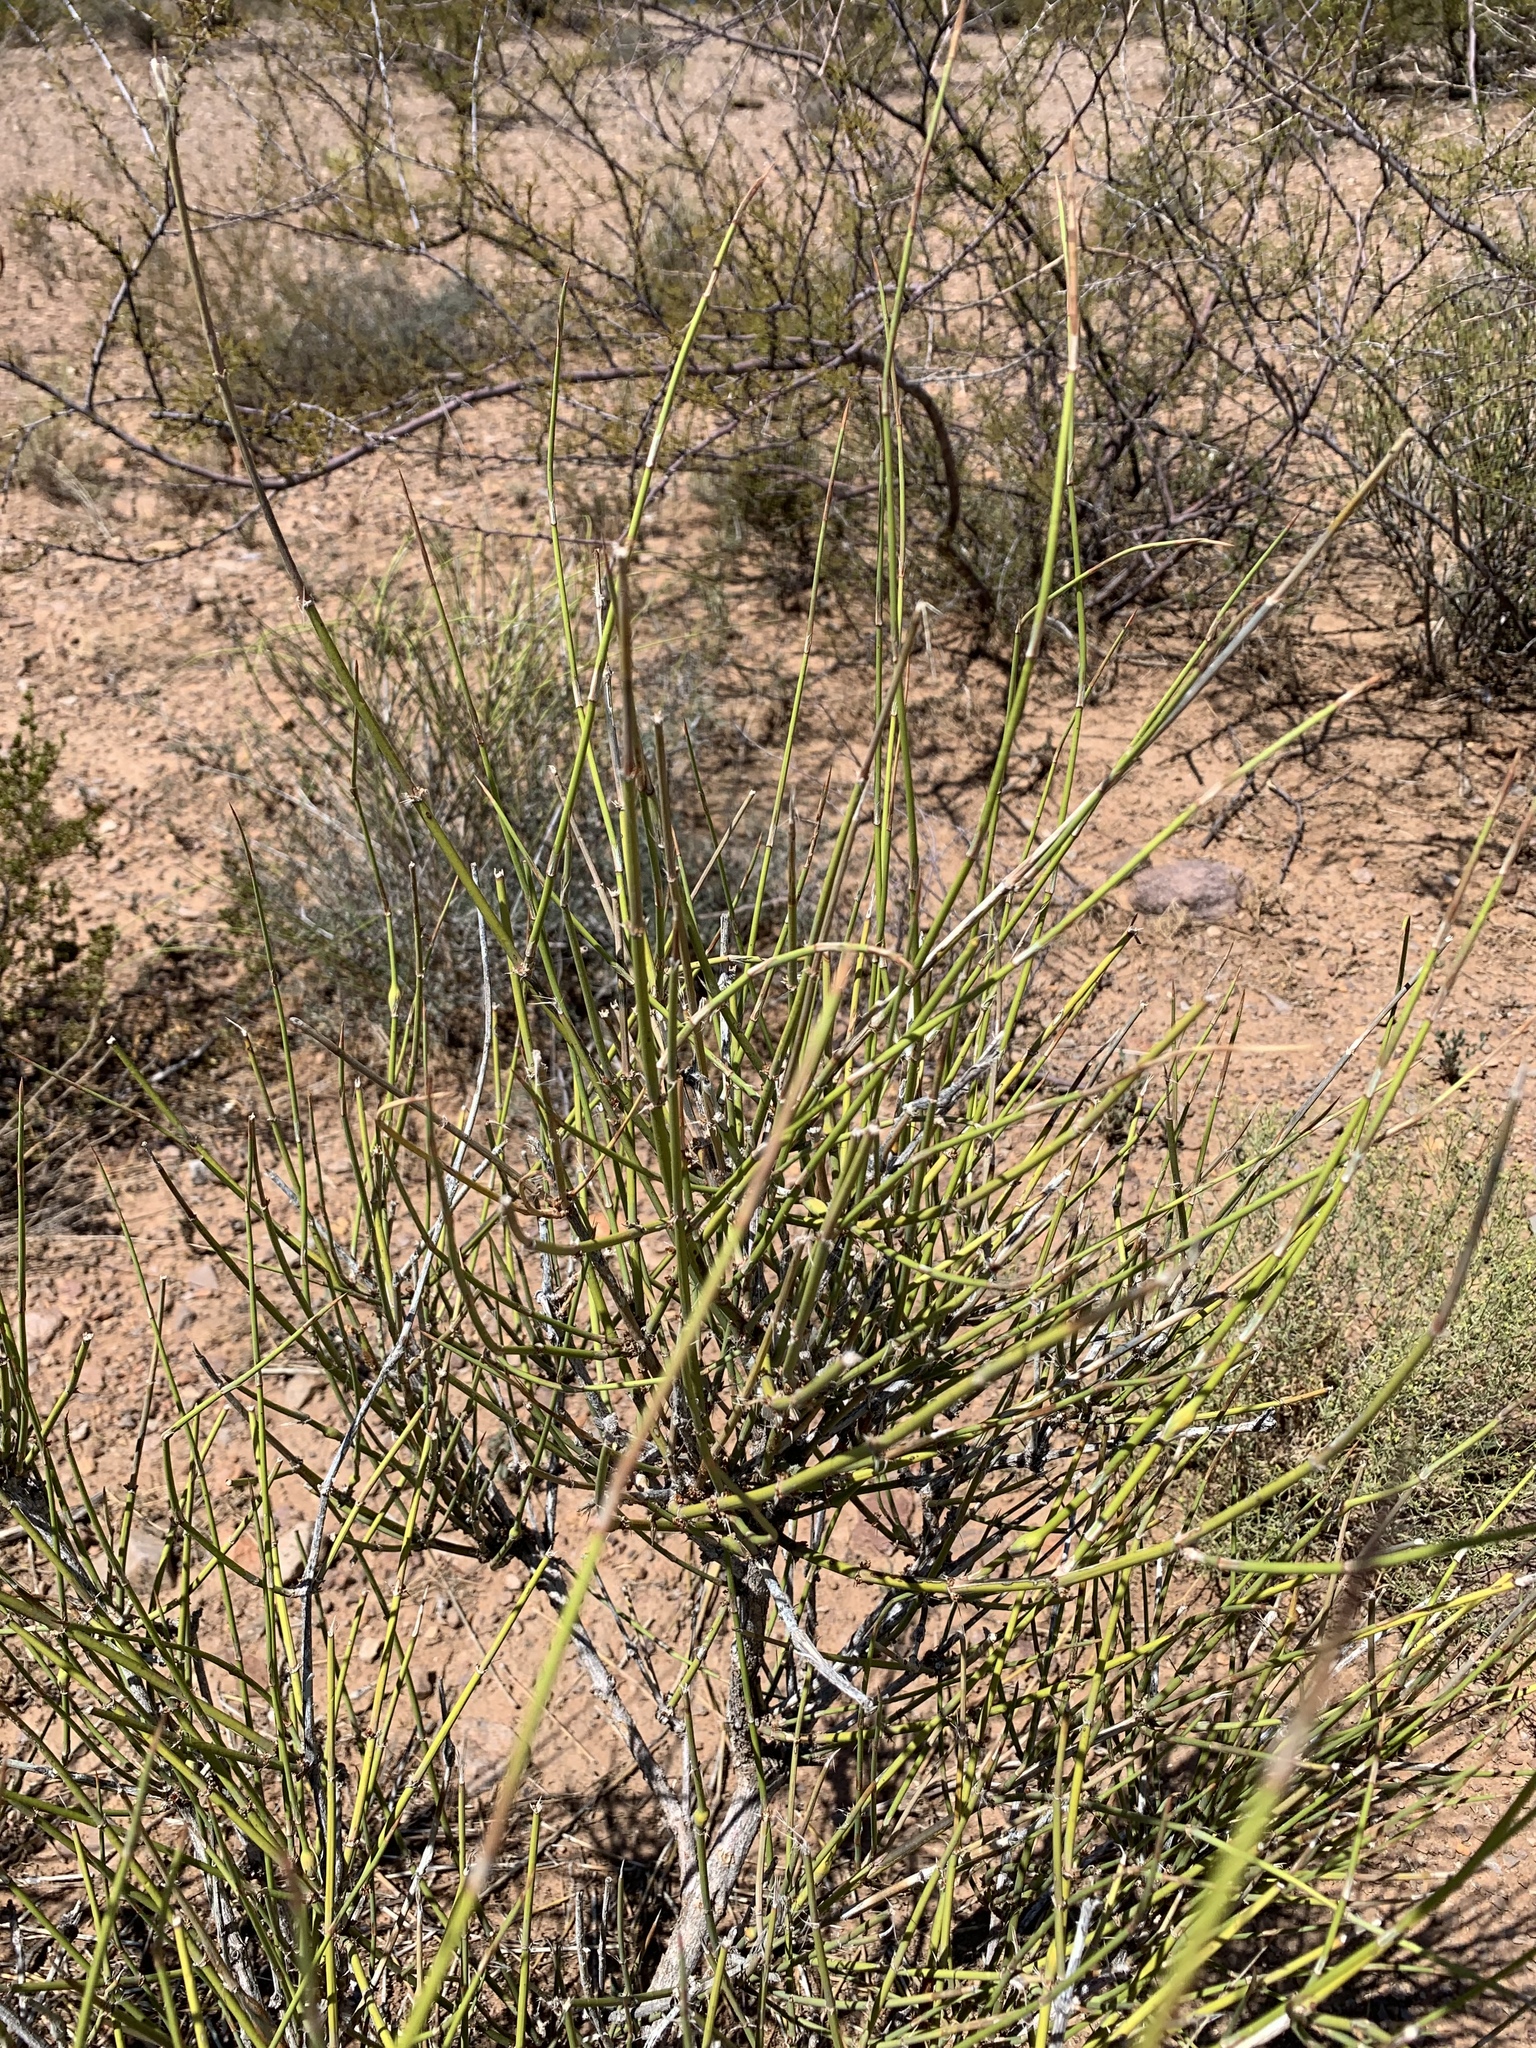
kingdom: Plantae
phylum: Tracheophyta
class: Gnetopsida
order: Ephedrales
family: Ephedraceae
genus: Ephedra
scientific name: Ephedra trifurca
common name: Mexican-tea
